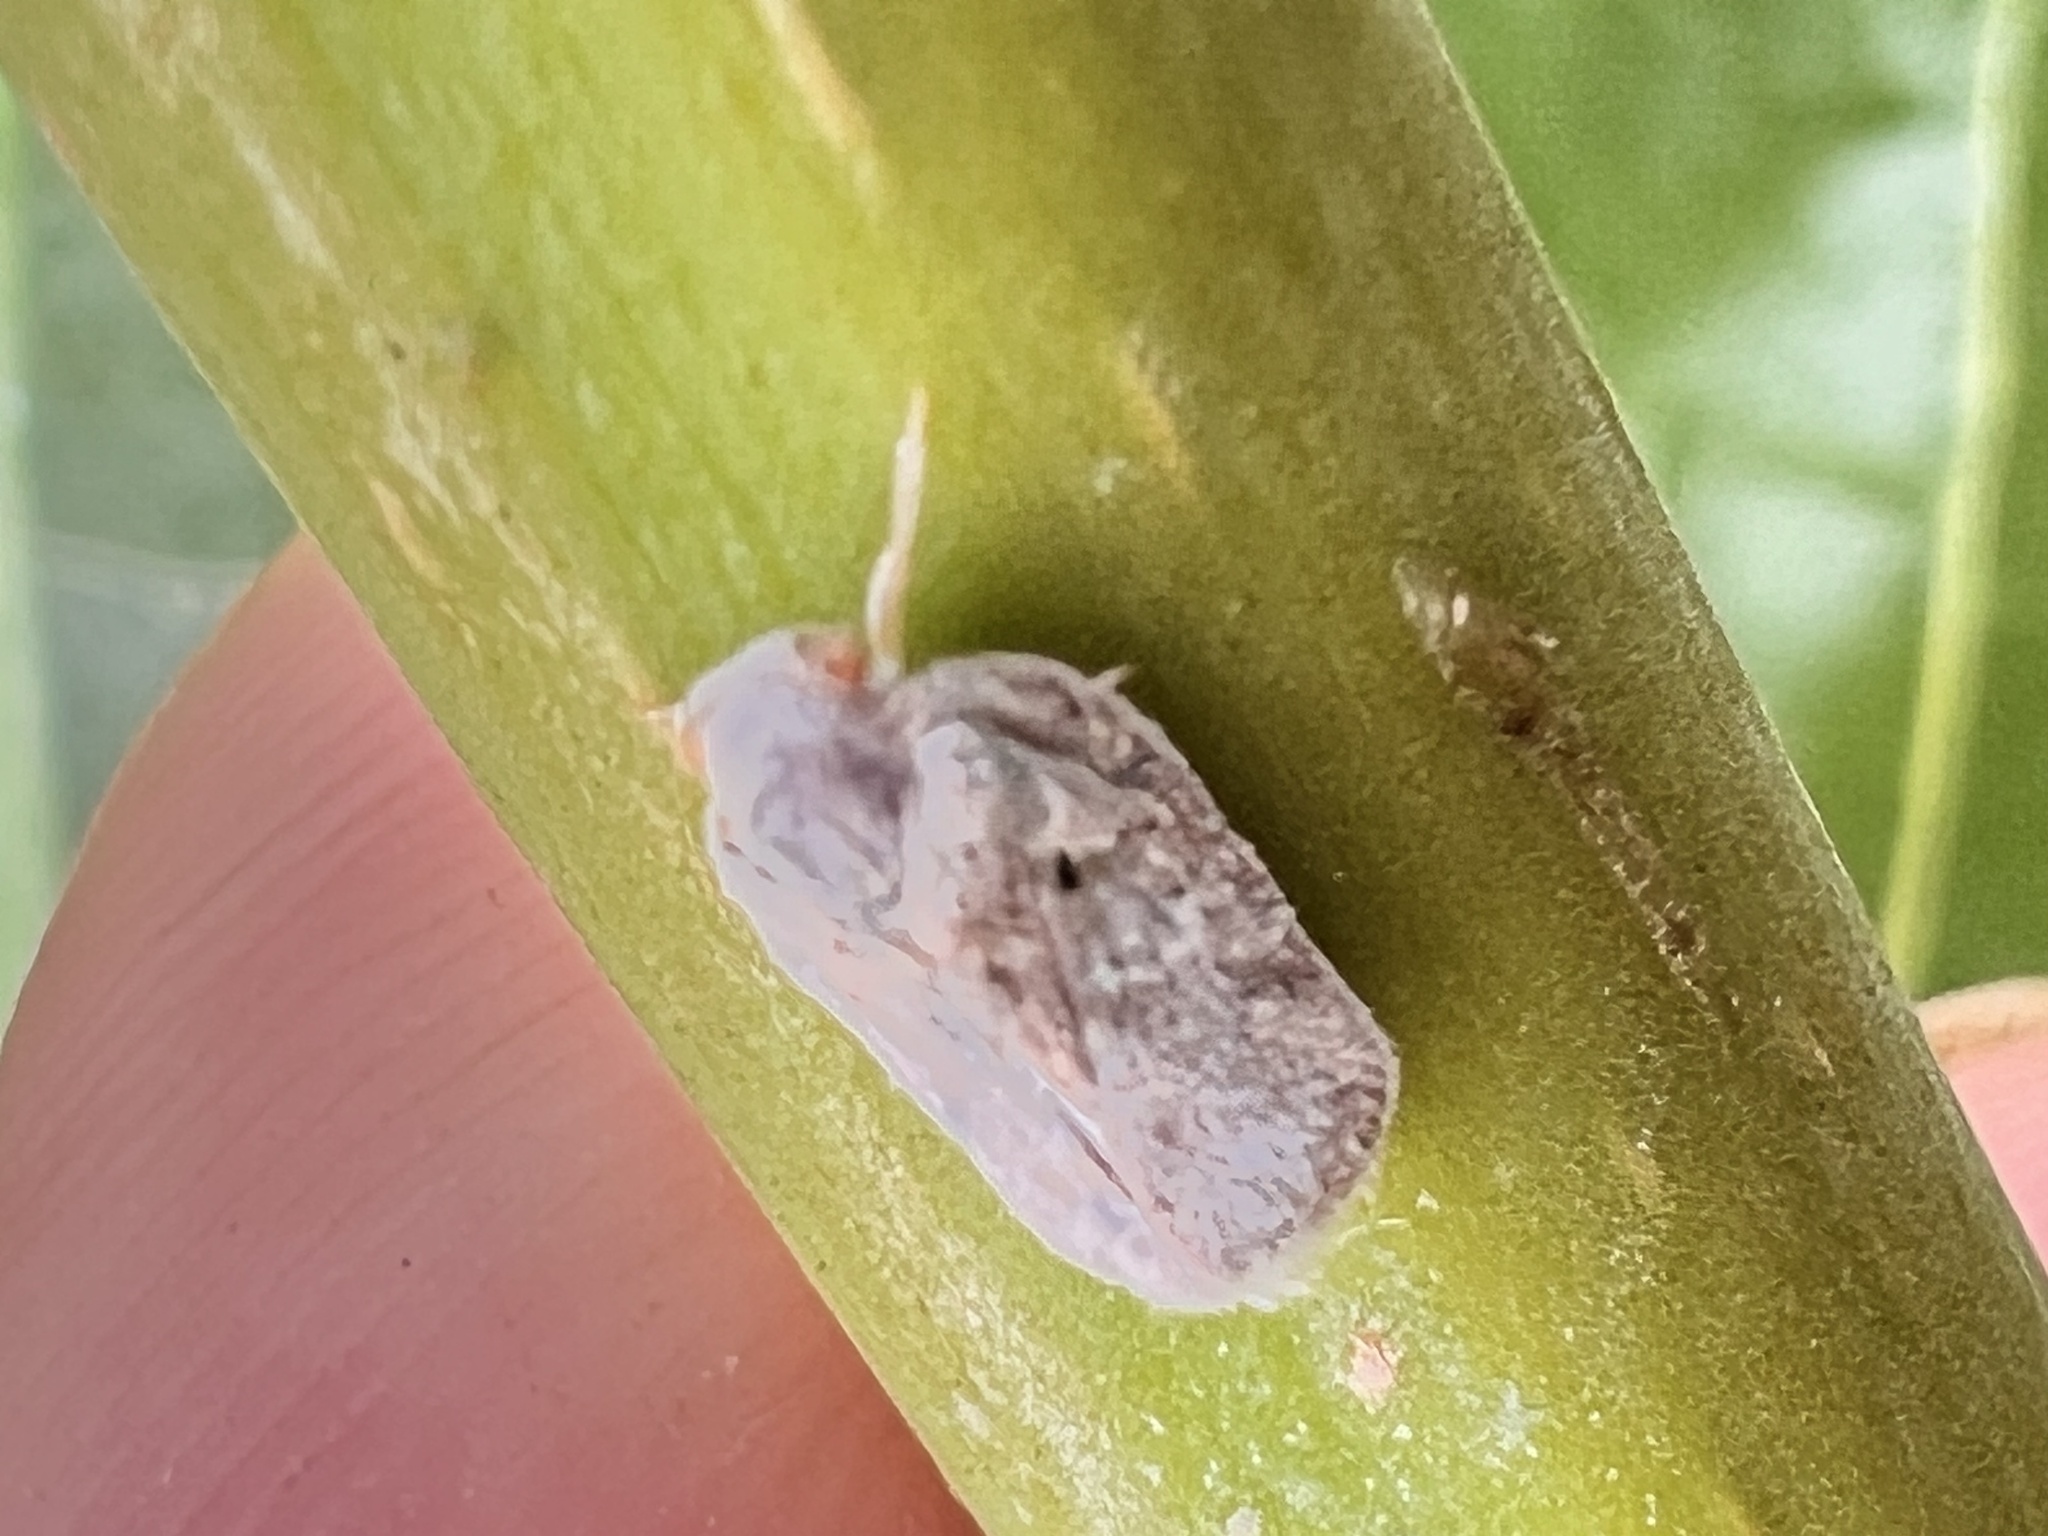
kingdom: Animalia
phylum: Arthropoda
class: Insecta
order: Hemiptera
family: Flatidae
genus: Melormenis
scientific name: Melormenis basalis
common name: Puerto rican planthopper
